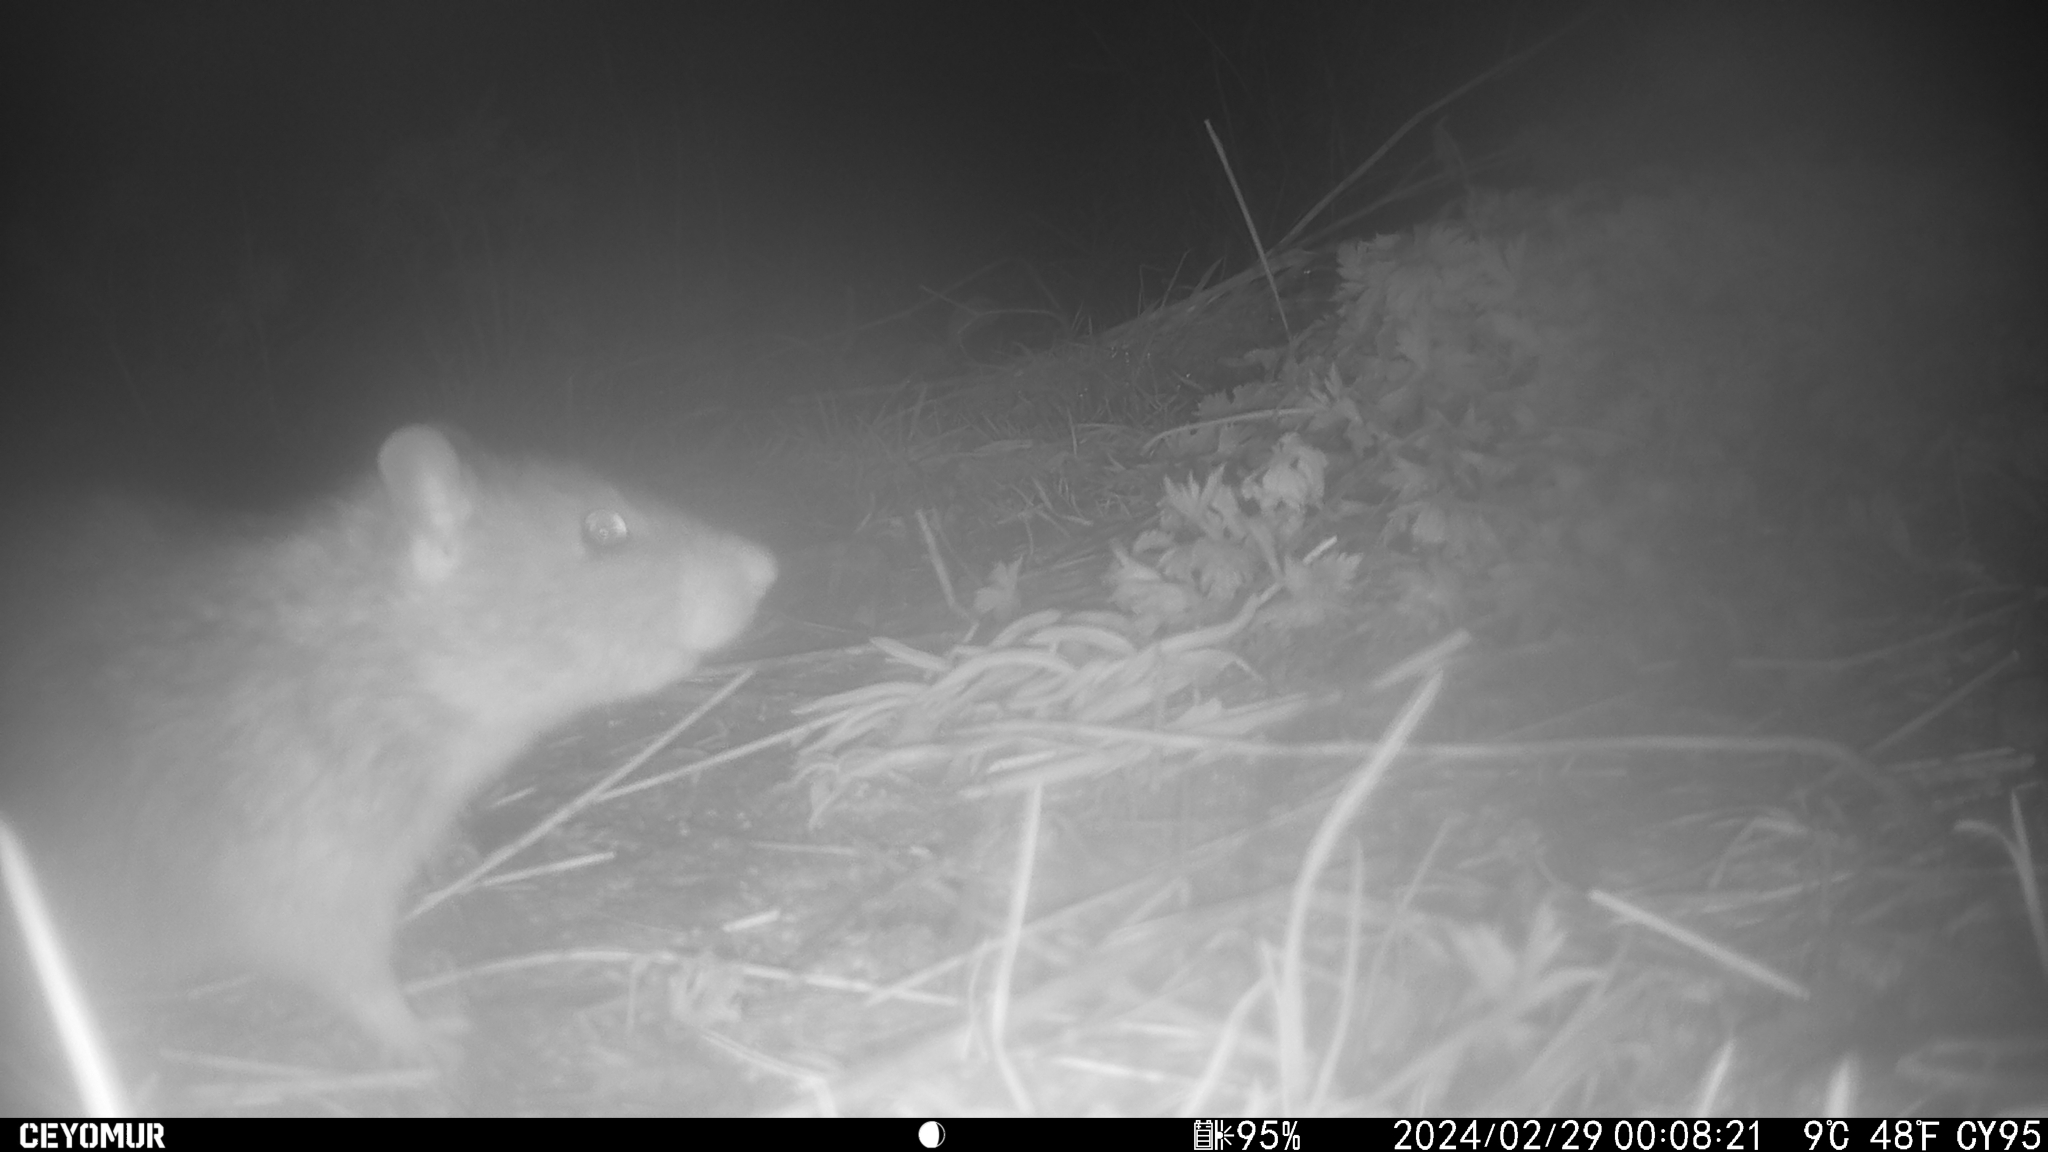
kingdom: Animalia
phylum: Chordata
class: Mammalia
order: Rodentia
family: Muridae
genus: Rattus
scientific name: Rattus norvegicus
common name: Brown rat
